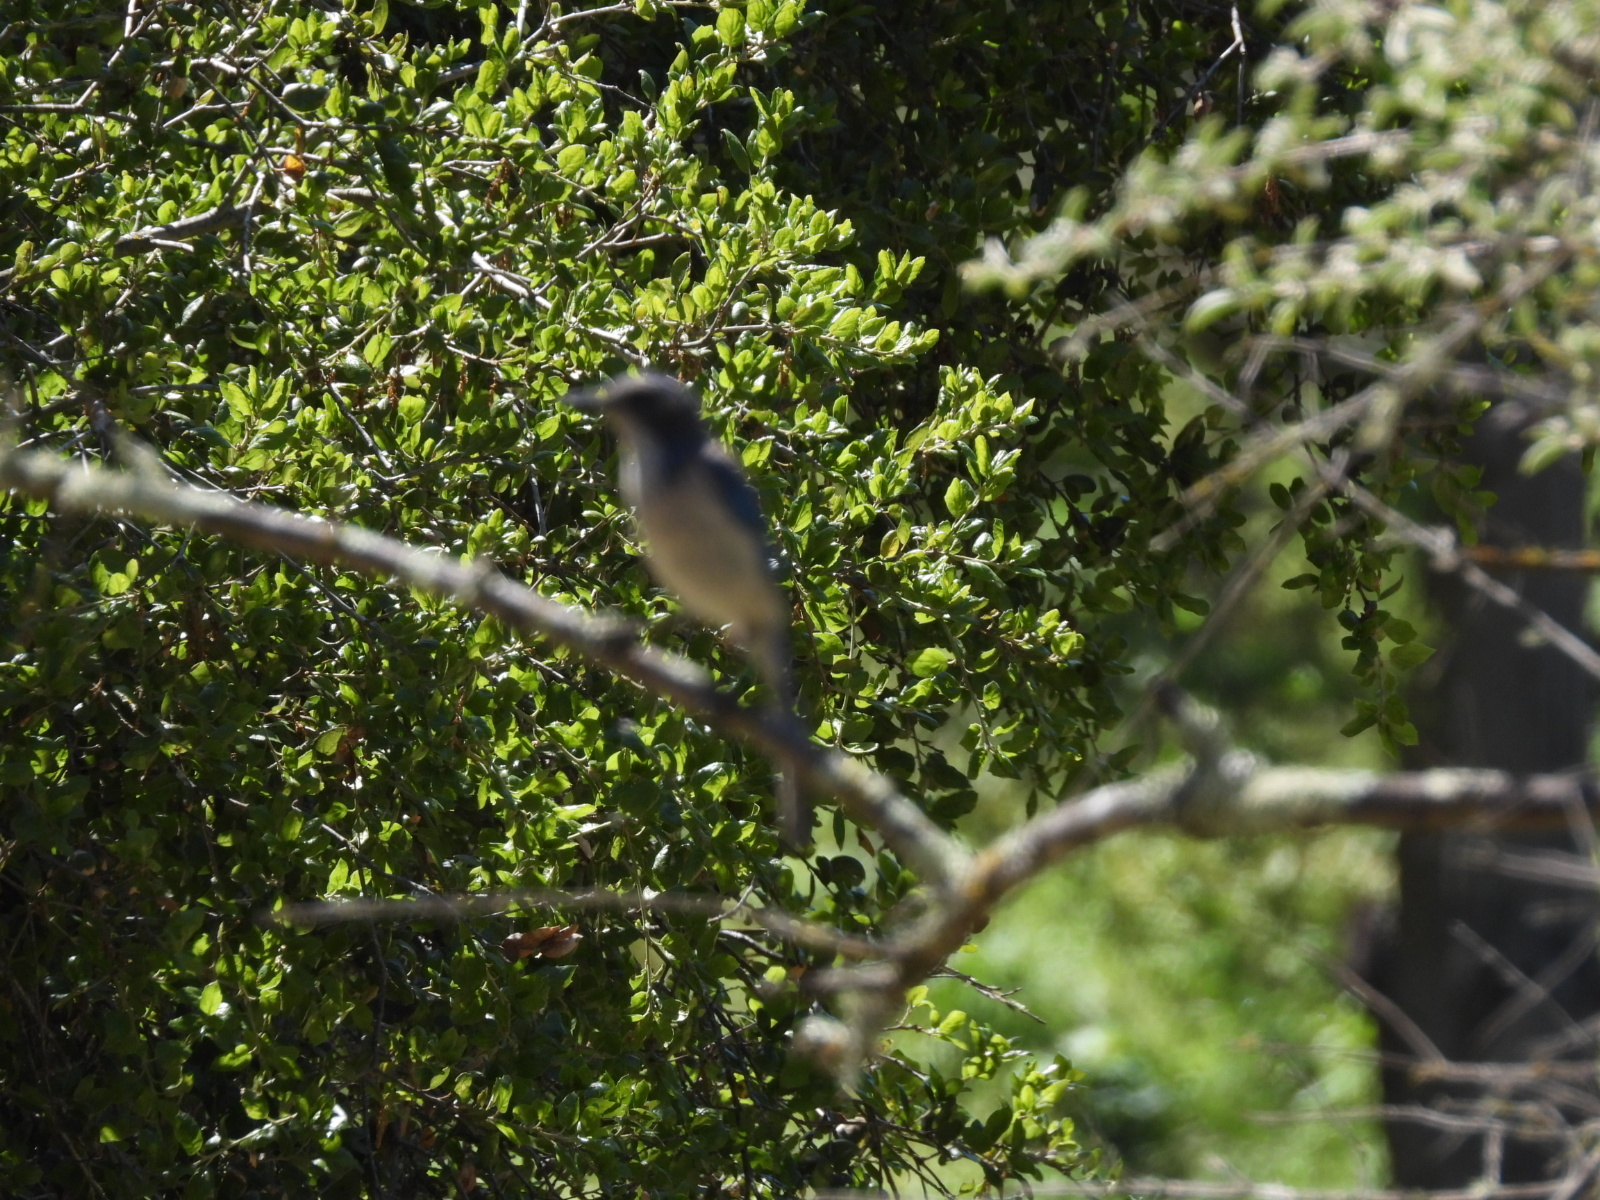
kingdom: Animalia
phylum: Chordata
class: Aves
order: Passeriformes
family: Corvidae
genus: Aphelocoma
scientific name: Aphelocoma californica
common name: California scrub-jay
